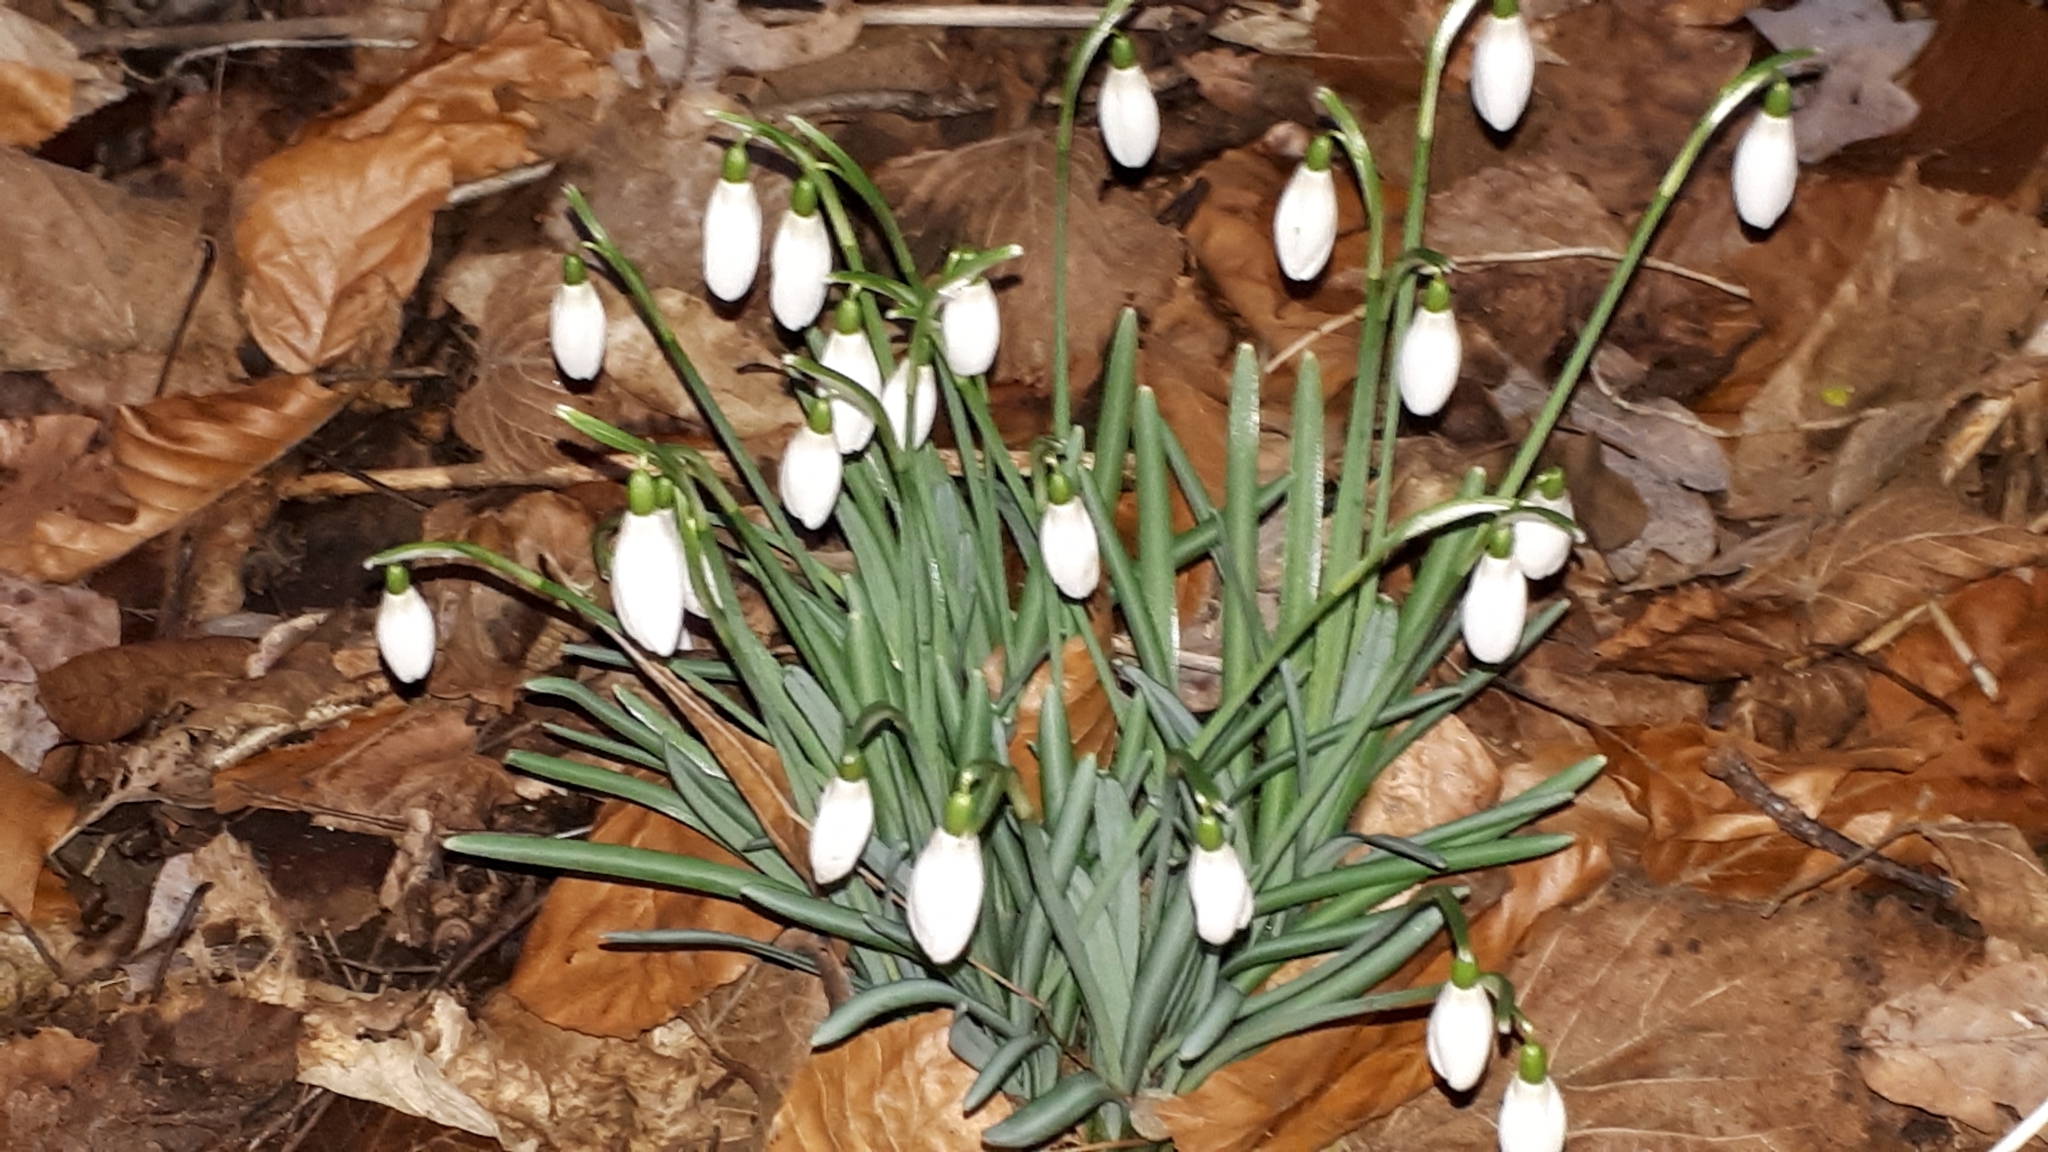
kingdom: Plantae
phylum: Tracheophyta
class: Liliopsida
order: Asparagales
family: Amaryllidaceae
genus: Galanthus
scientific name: Galanthus nivalis
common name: Snowdrop
